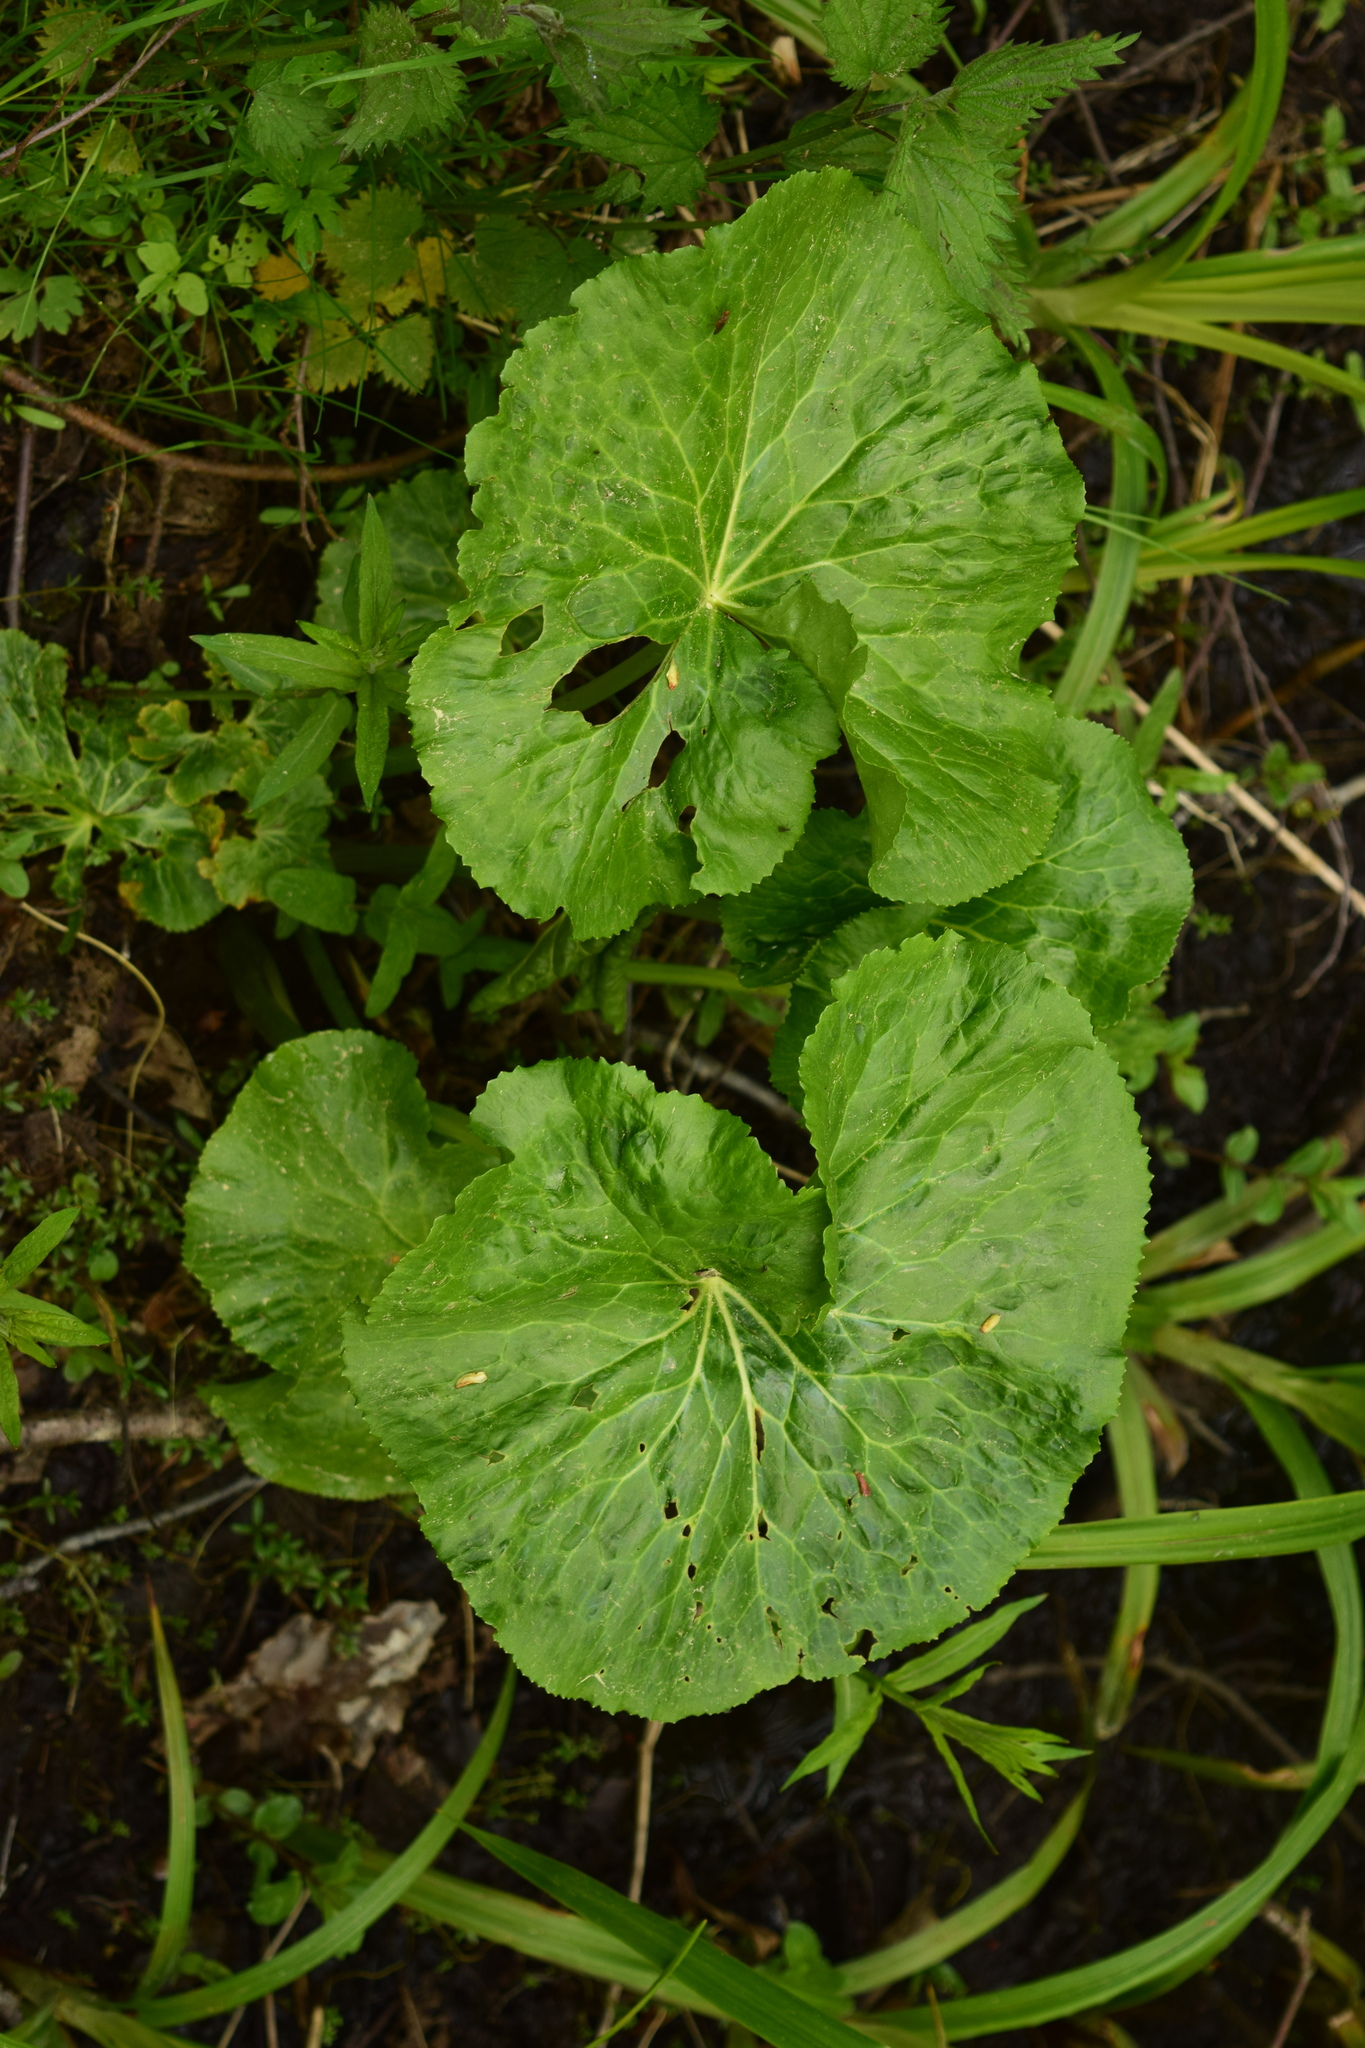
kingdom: Plantae
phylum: Tracheophyta
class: Magnoliopsida
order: Ranunculales
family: Ranunculaceae
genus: Caltha
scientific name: Caltha palustris
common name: Marsh marigold
